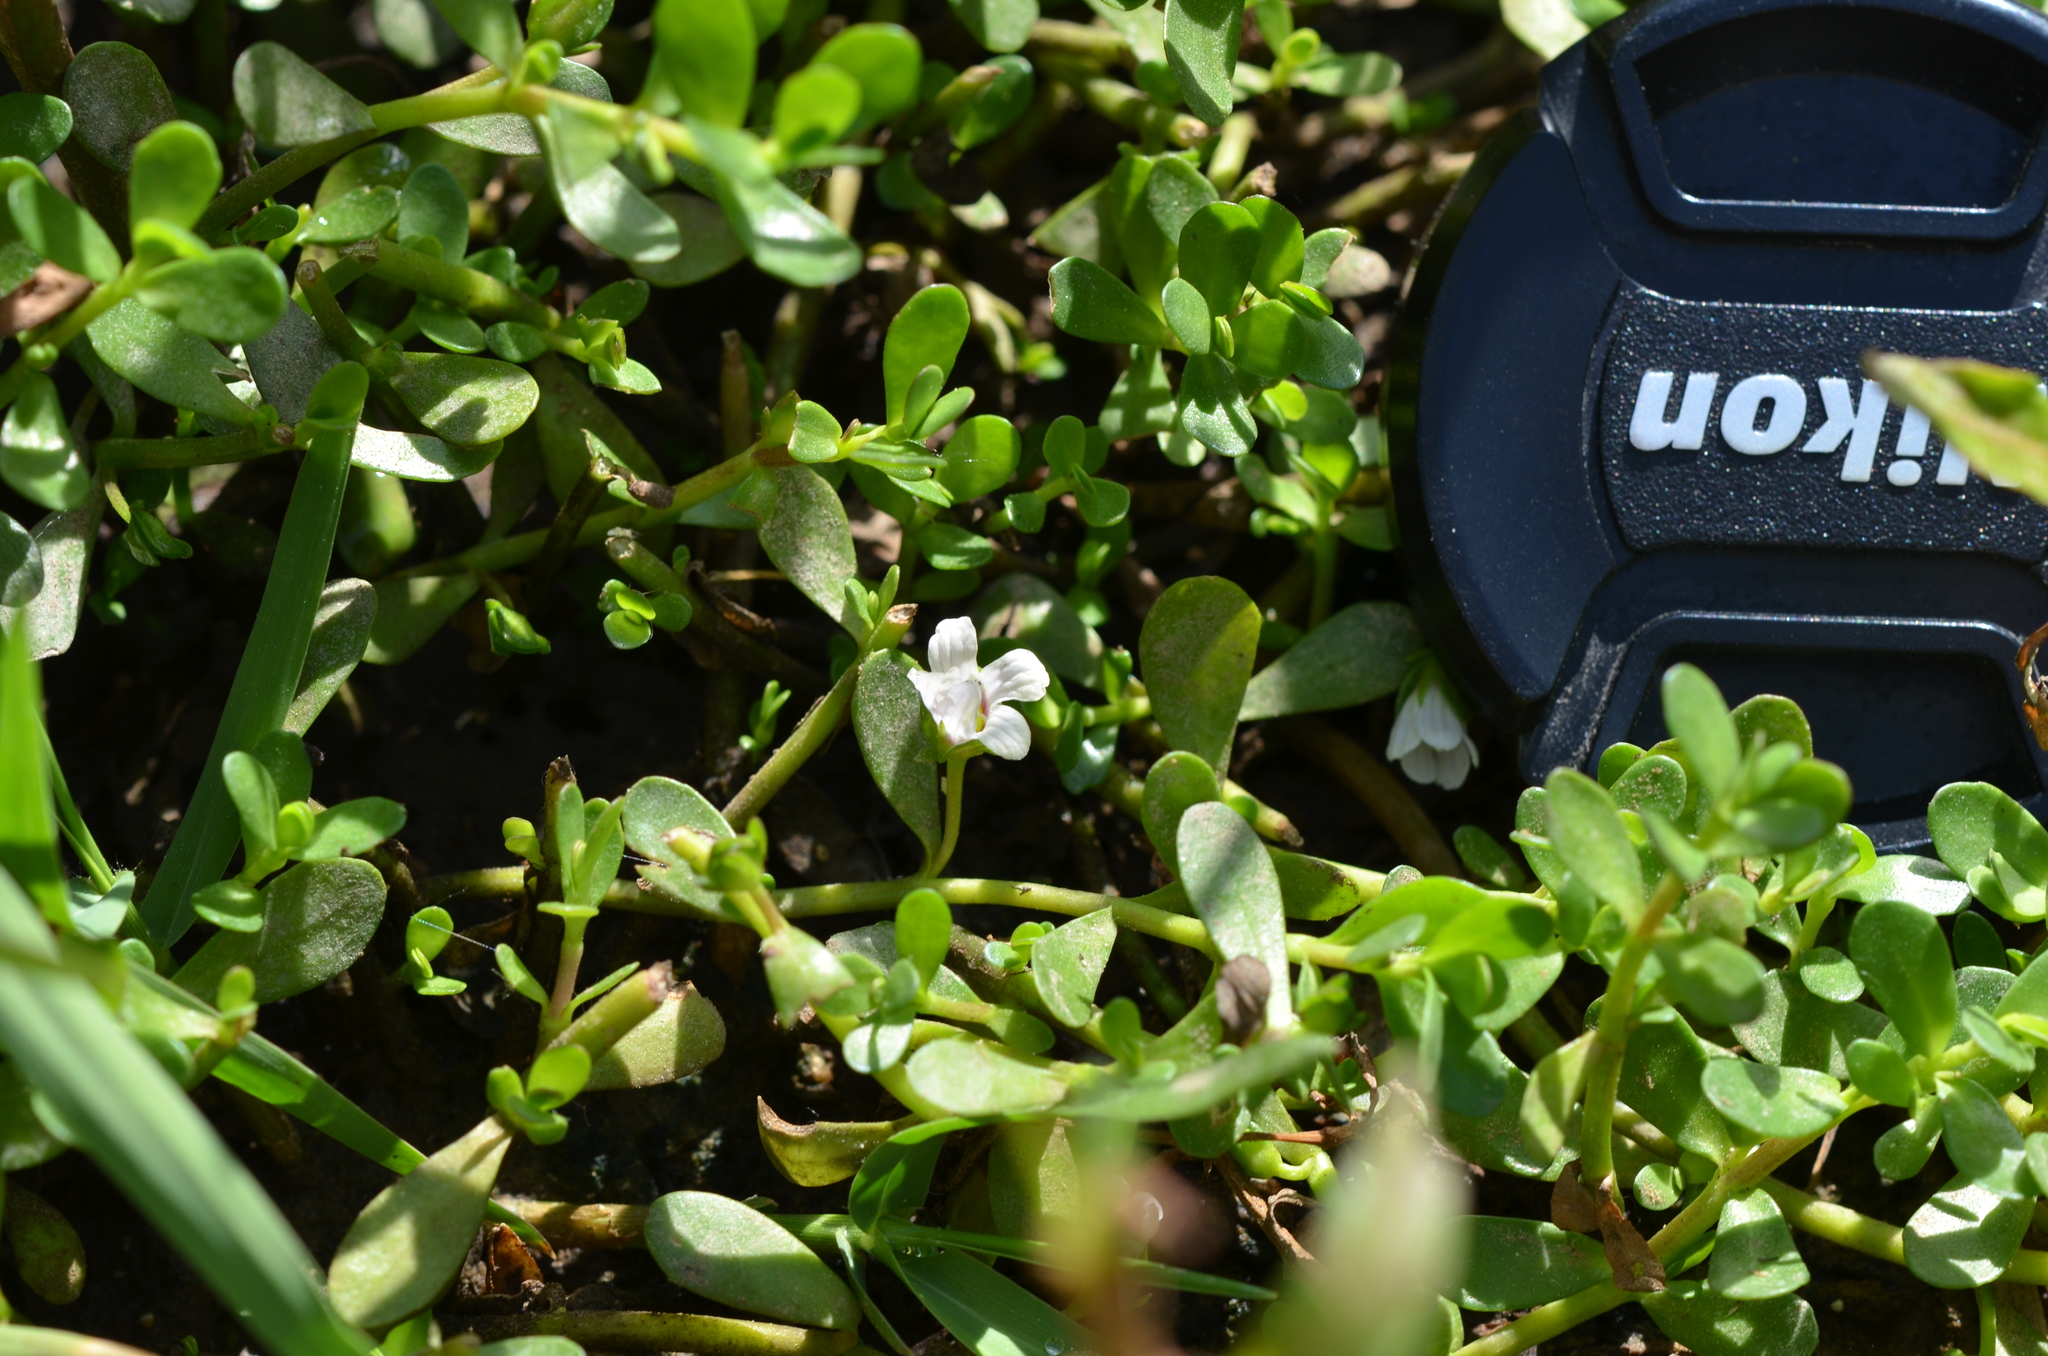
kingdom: Plantae
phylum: Tracheophyta
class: Magnoliopsida
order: Lamiales
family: Plantaginaceae
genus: Bacopa
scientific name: Bacopa monnieri
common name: Indian-pennywort
